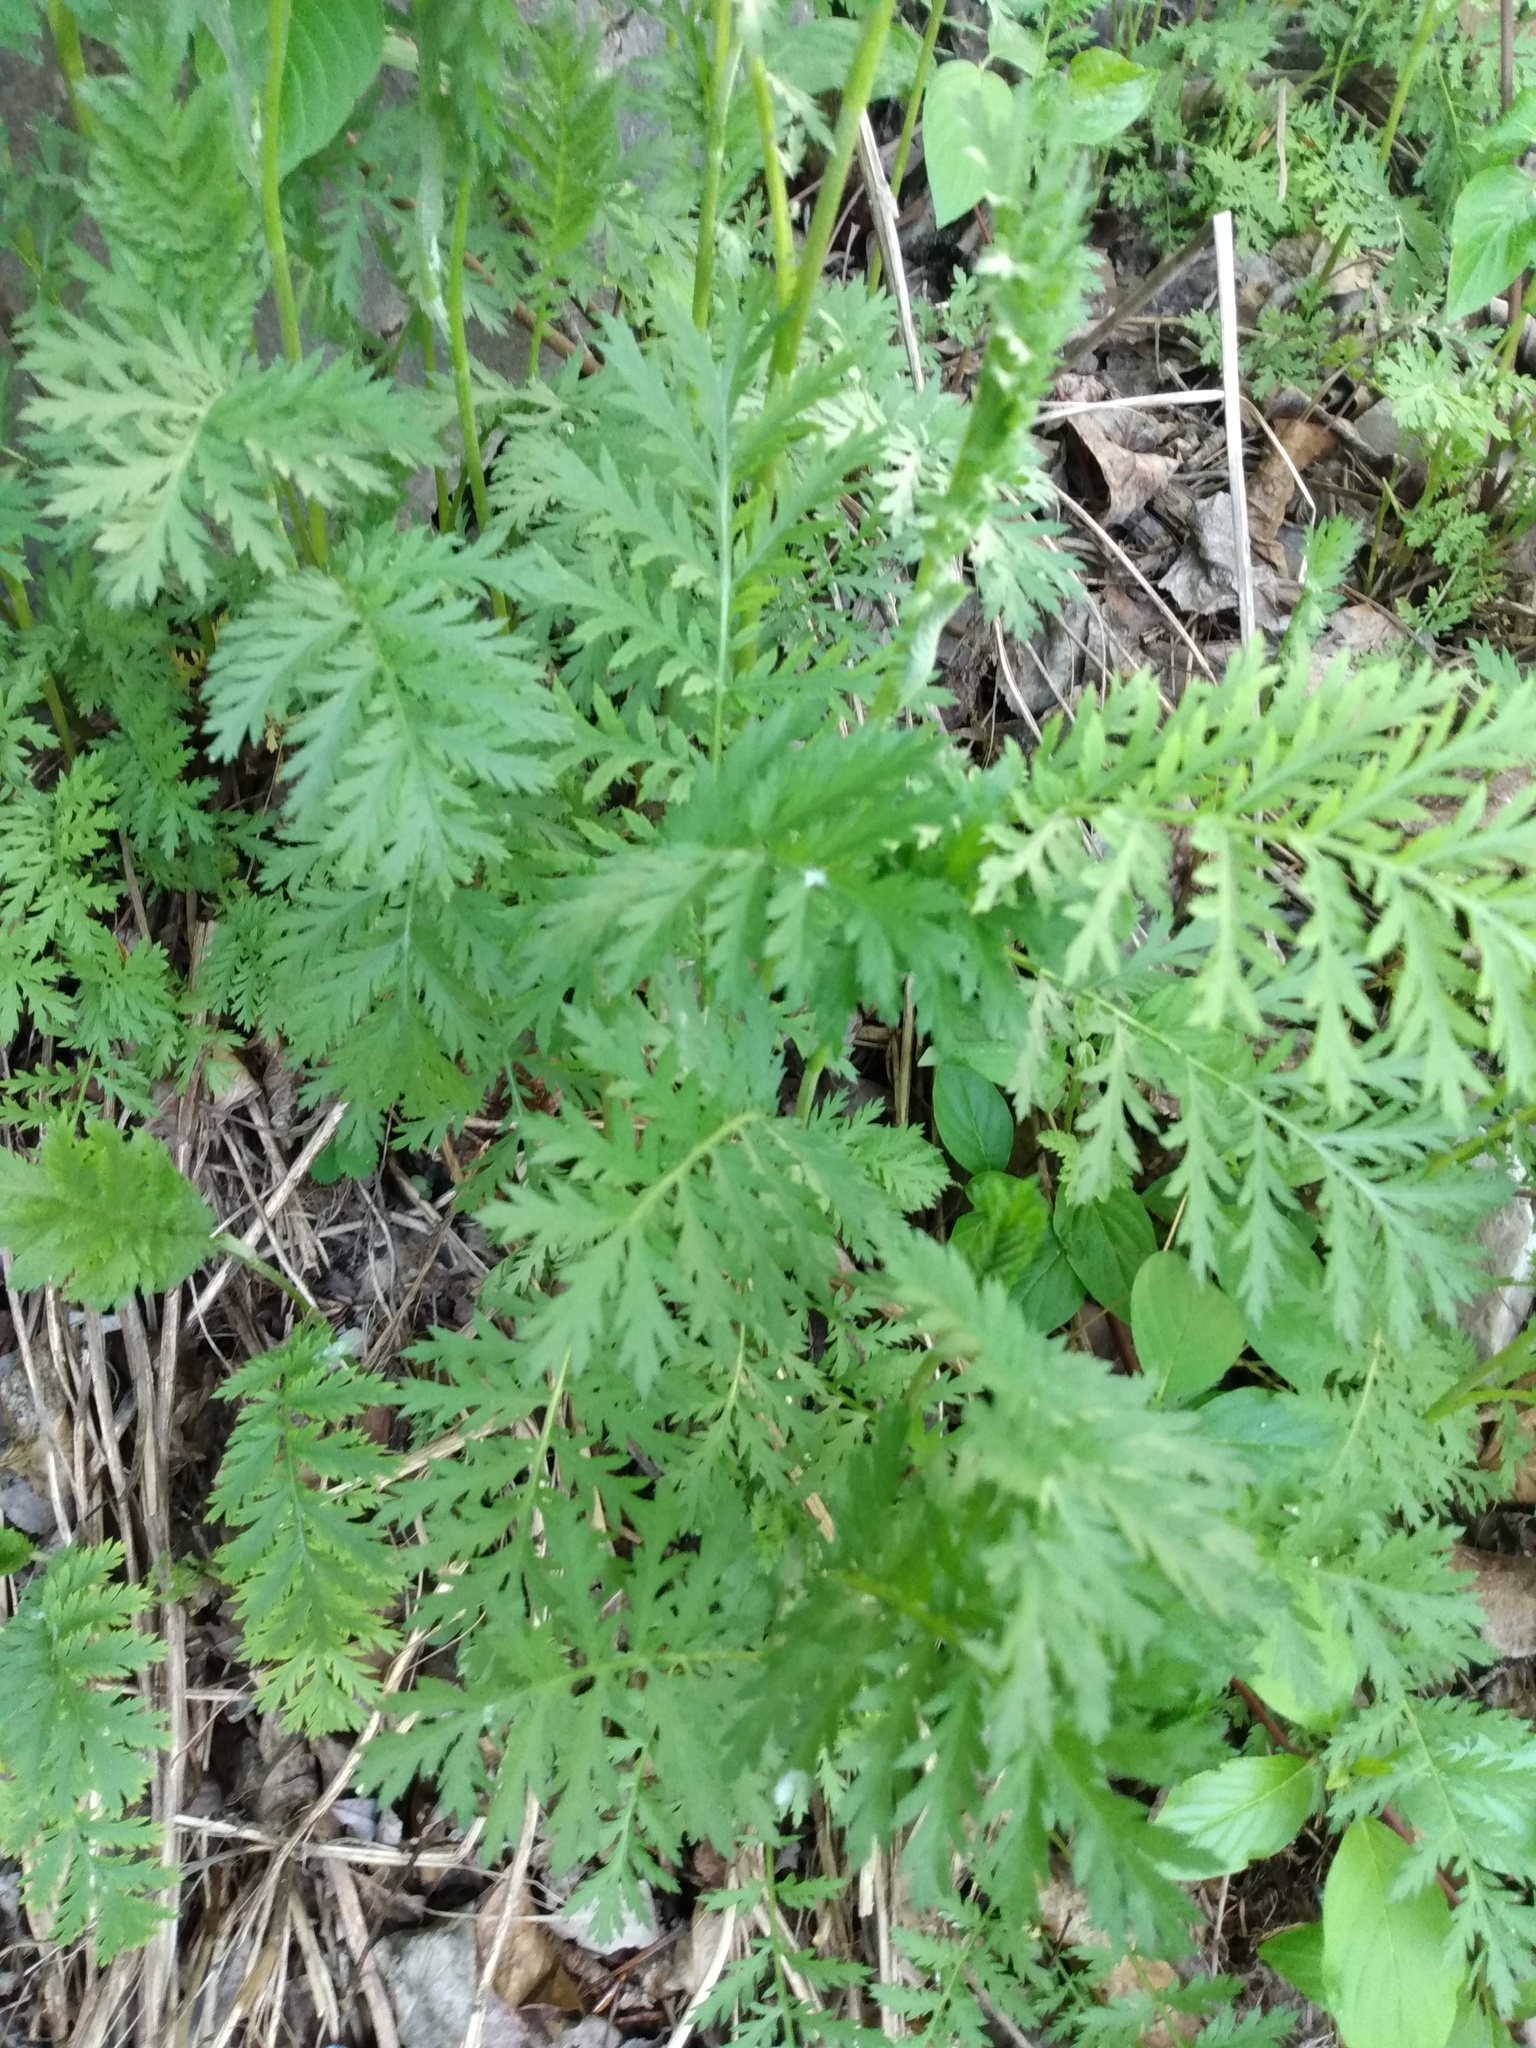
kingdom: Plantae
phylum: Tracheophyta
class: Magnoliopsida
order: Asterales
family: Asteraceae
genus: Tanacetum
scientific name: Tanacetum vulgare
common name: Common tansy
